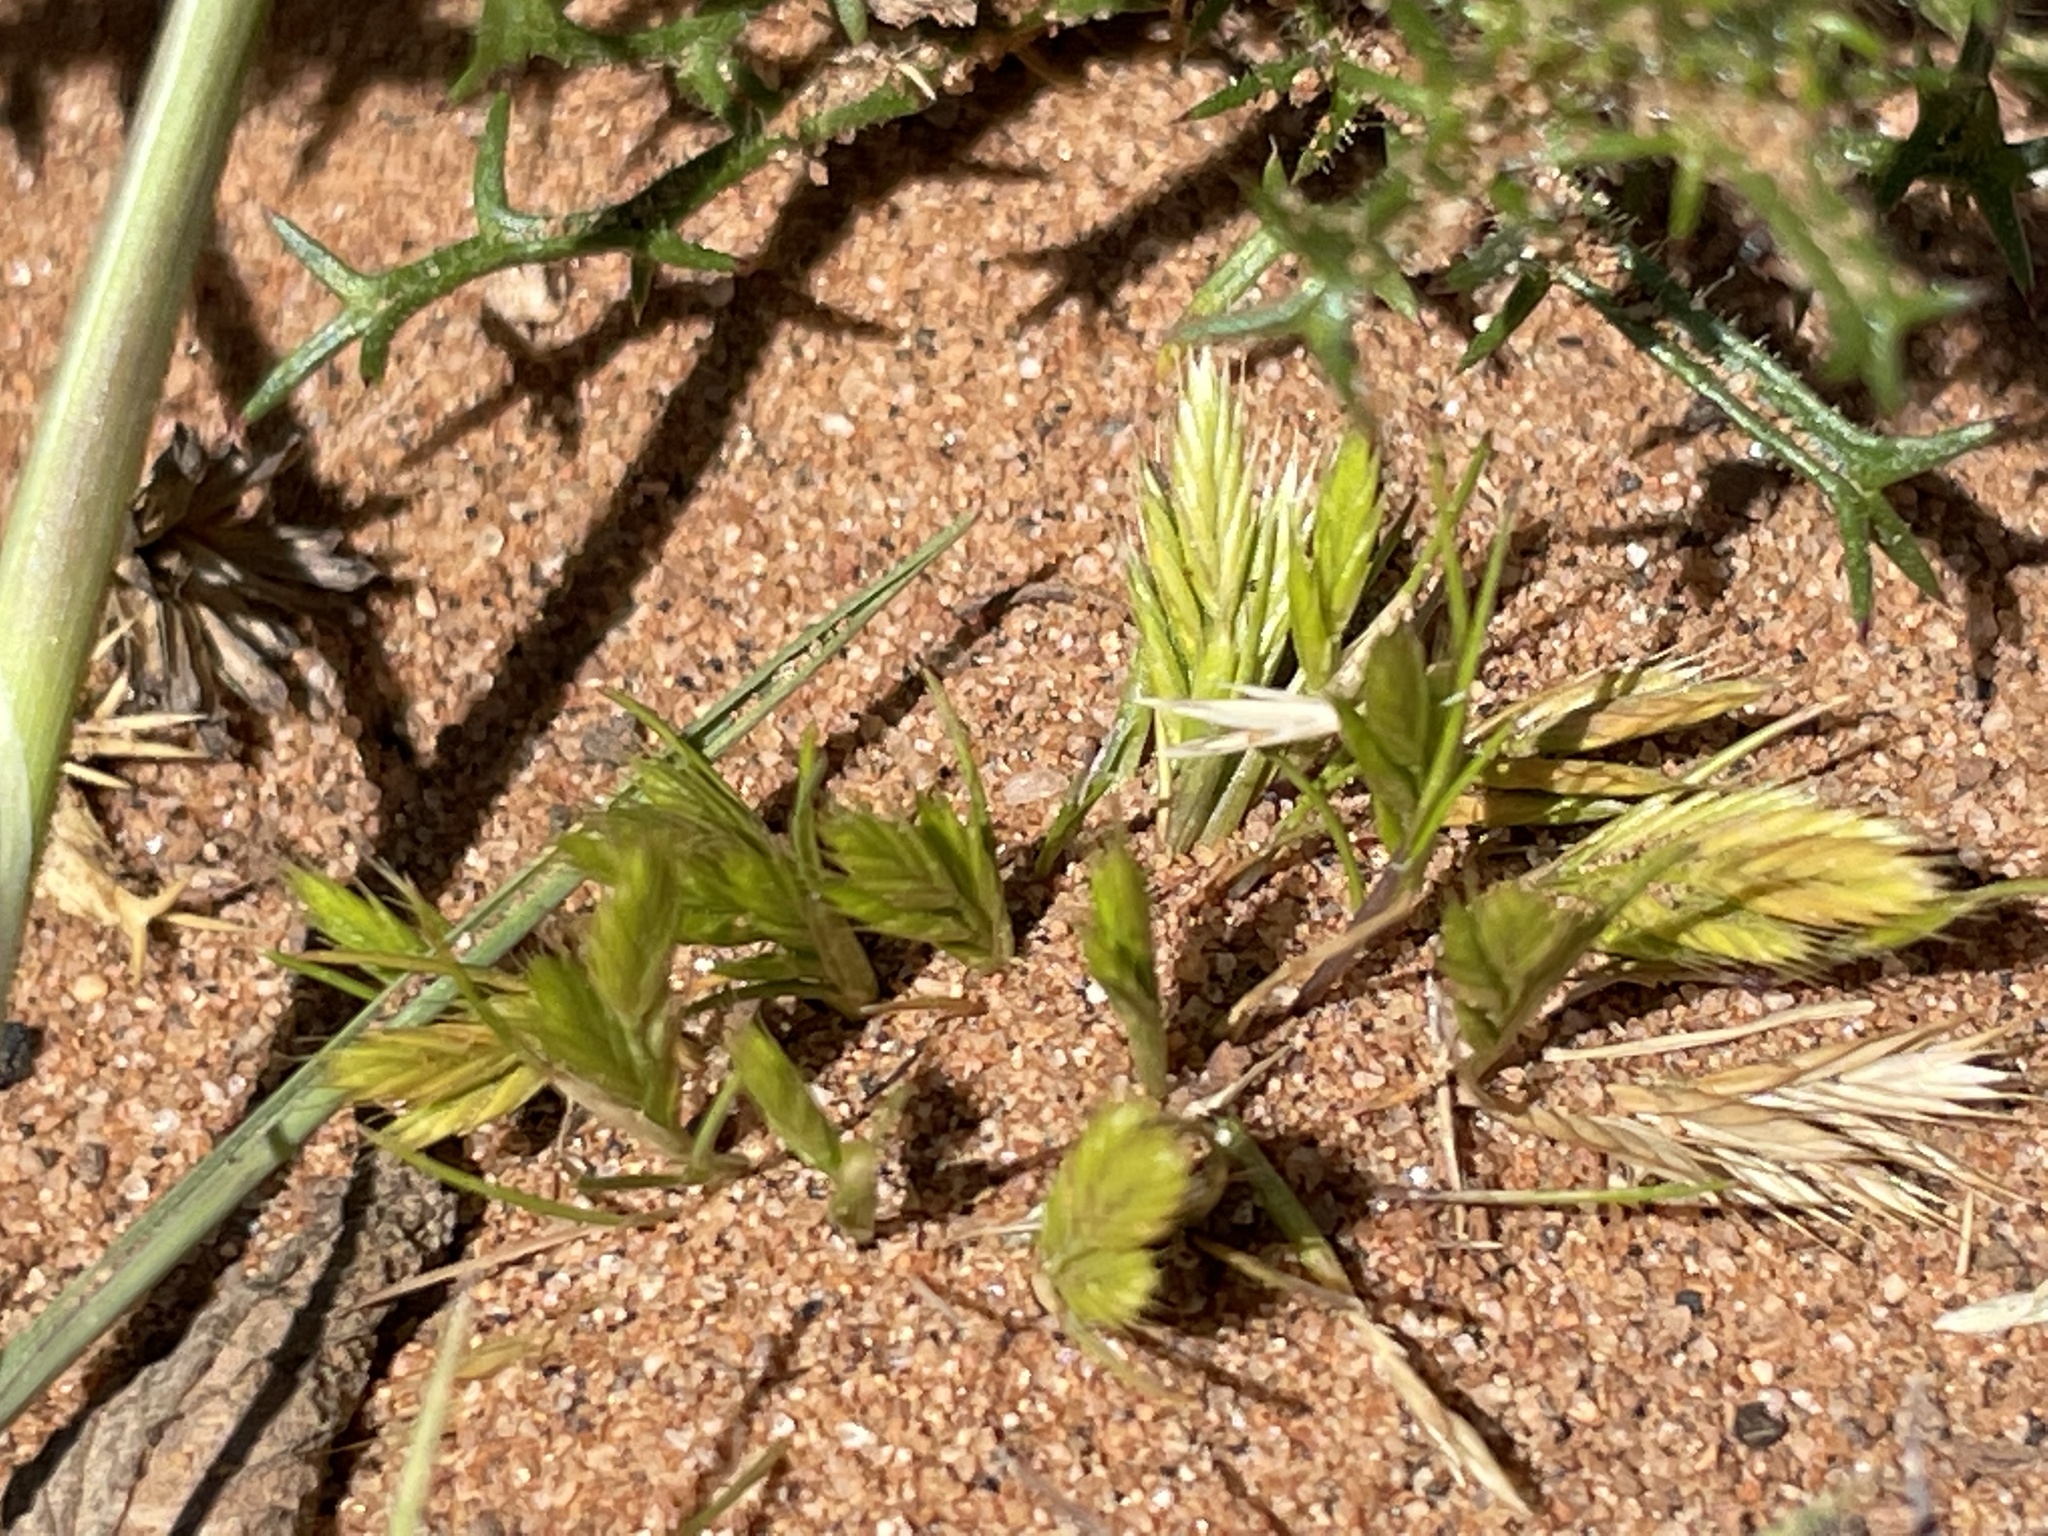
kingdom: Plantae
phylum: Tracheophyta
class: Liliopsida
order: Poales
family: Poaceae
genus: Festuca
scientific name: Festuca octoflora
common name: Sixweeks grass
